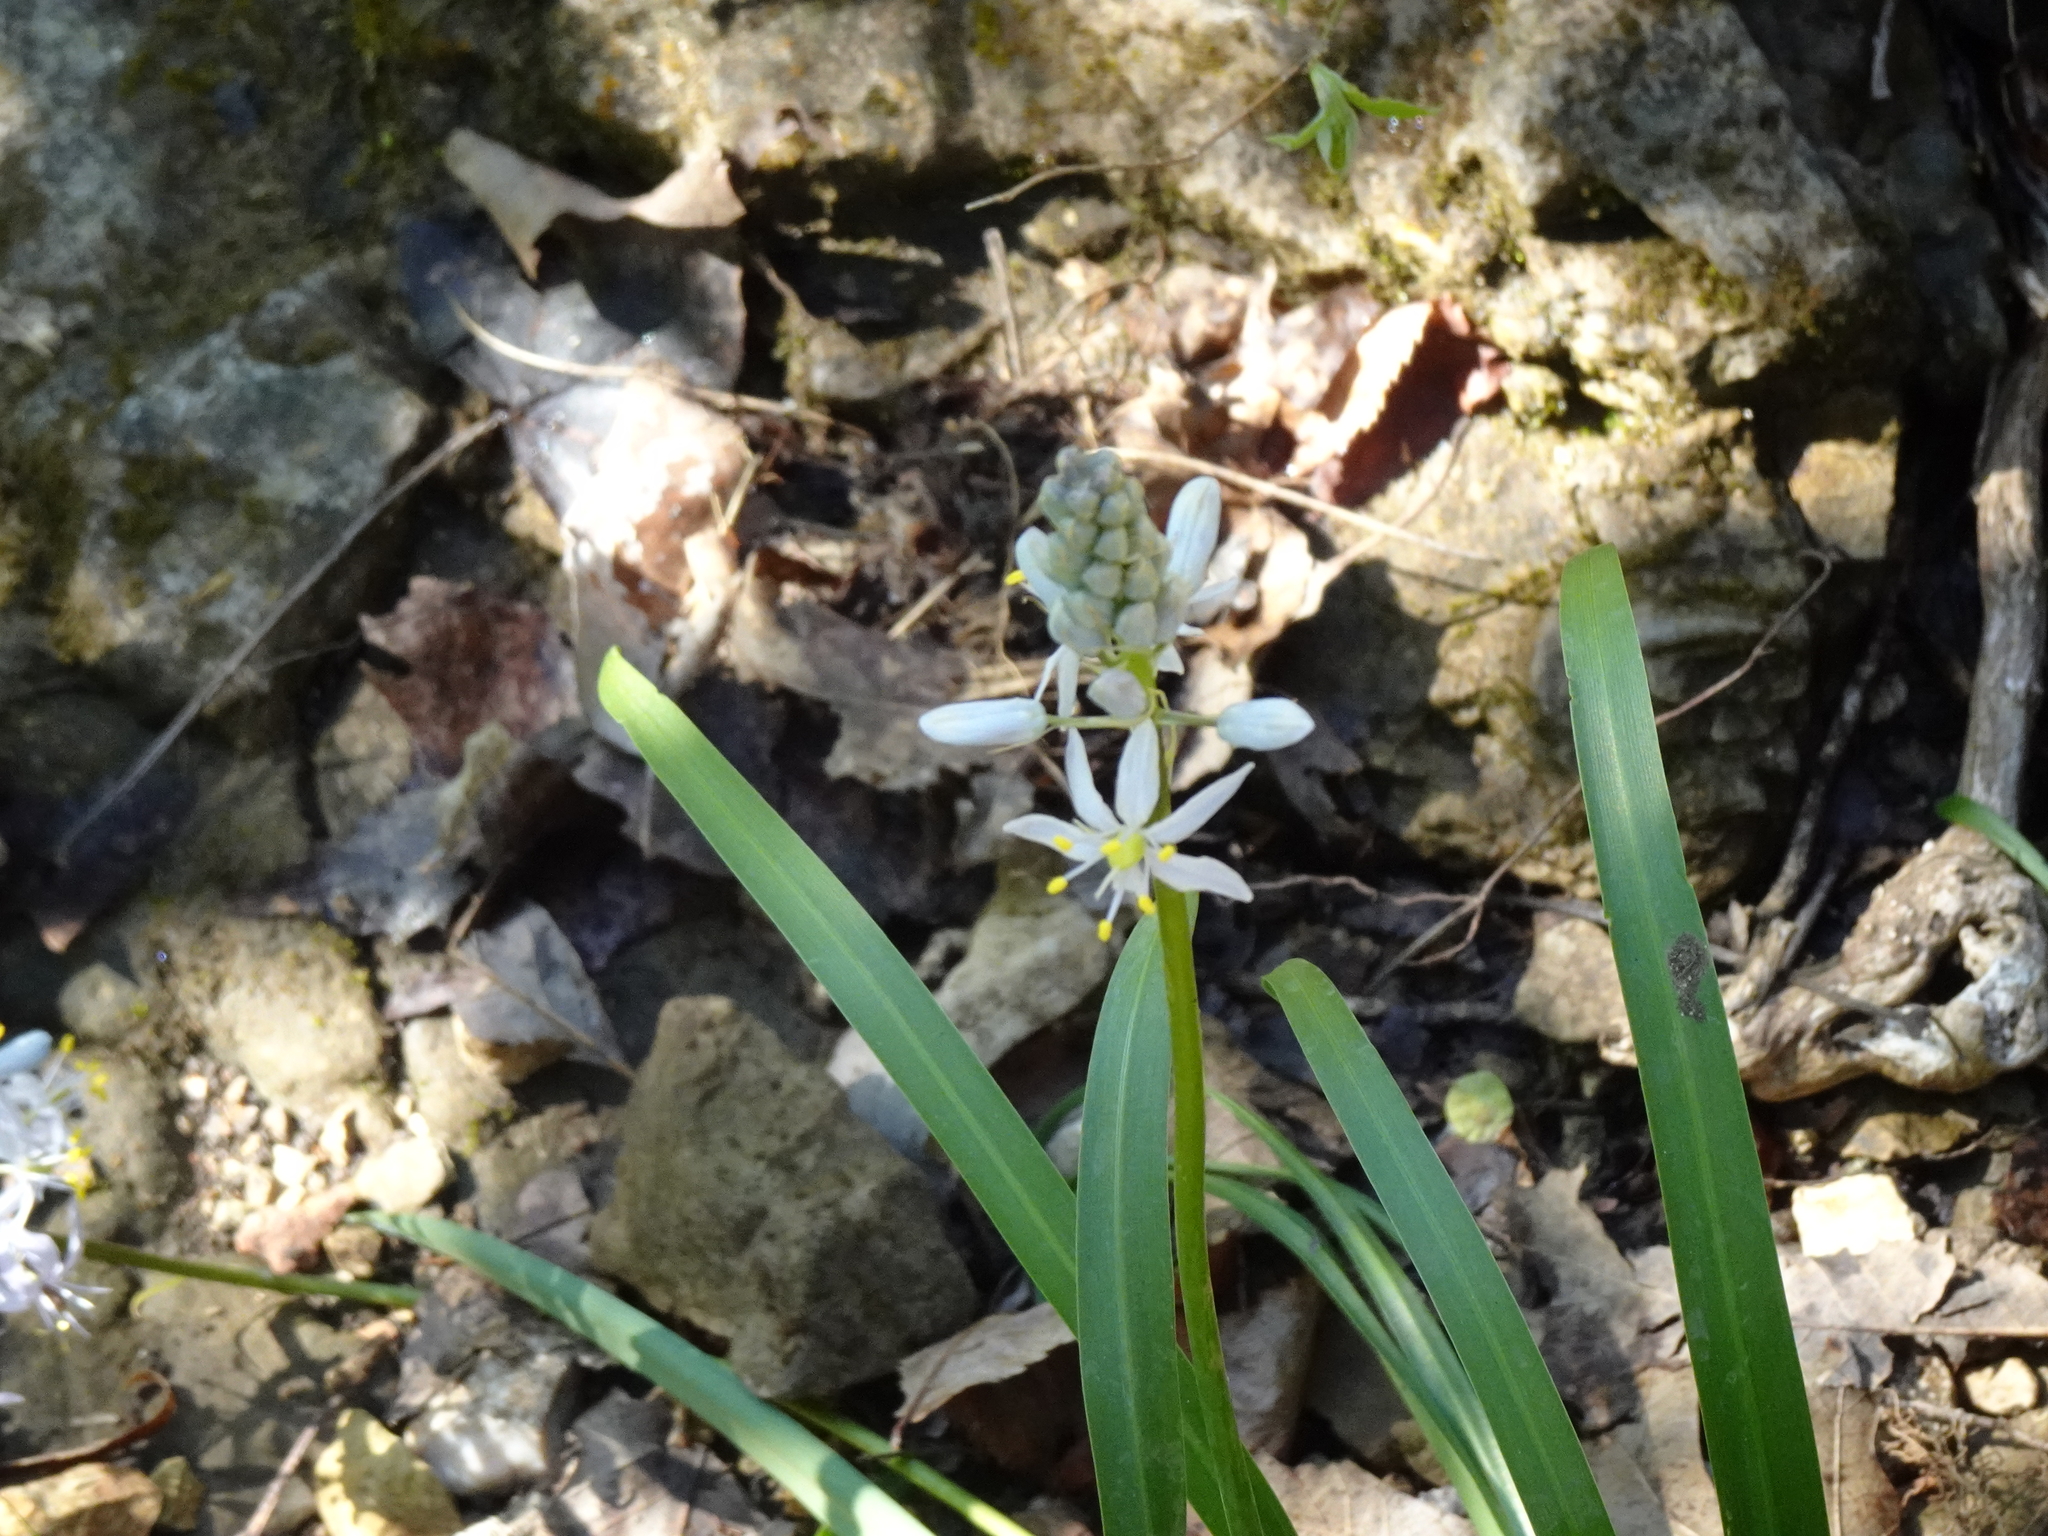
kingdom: Plantae
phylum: Tracheophyta
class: Liliopsida
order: Asparagales
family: Asparagaceae
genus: Camassia
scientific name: Camassia scilloides
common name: Wild hyacinth
